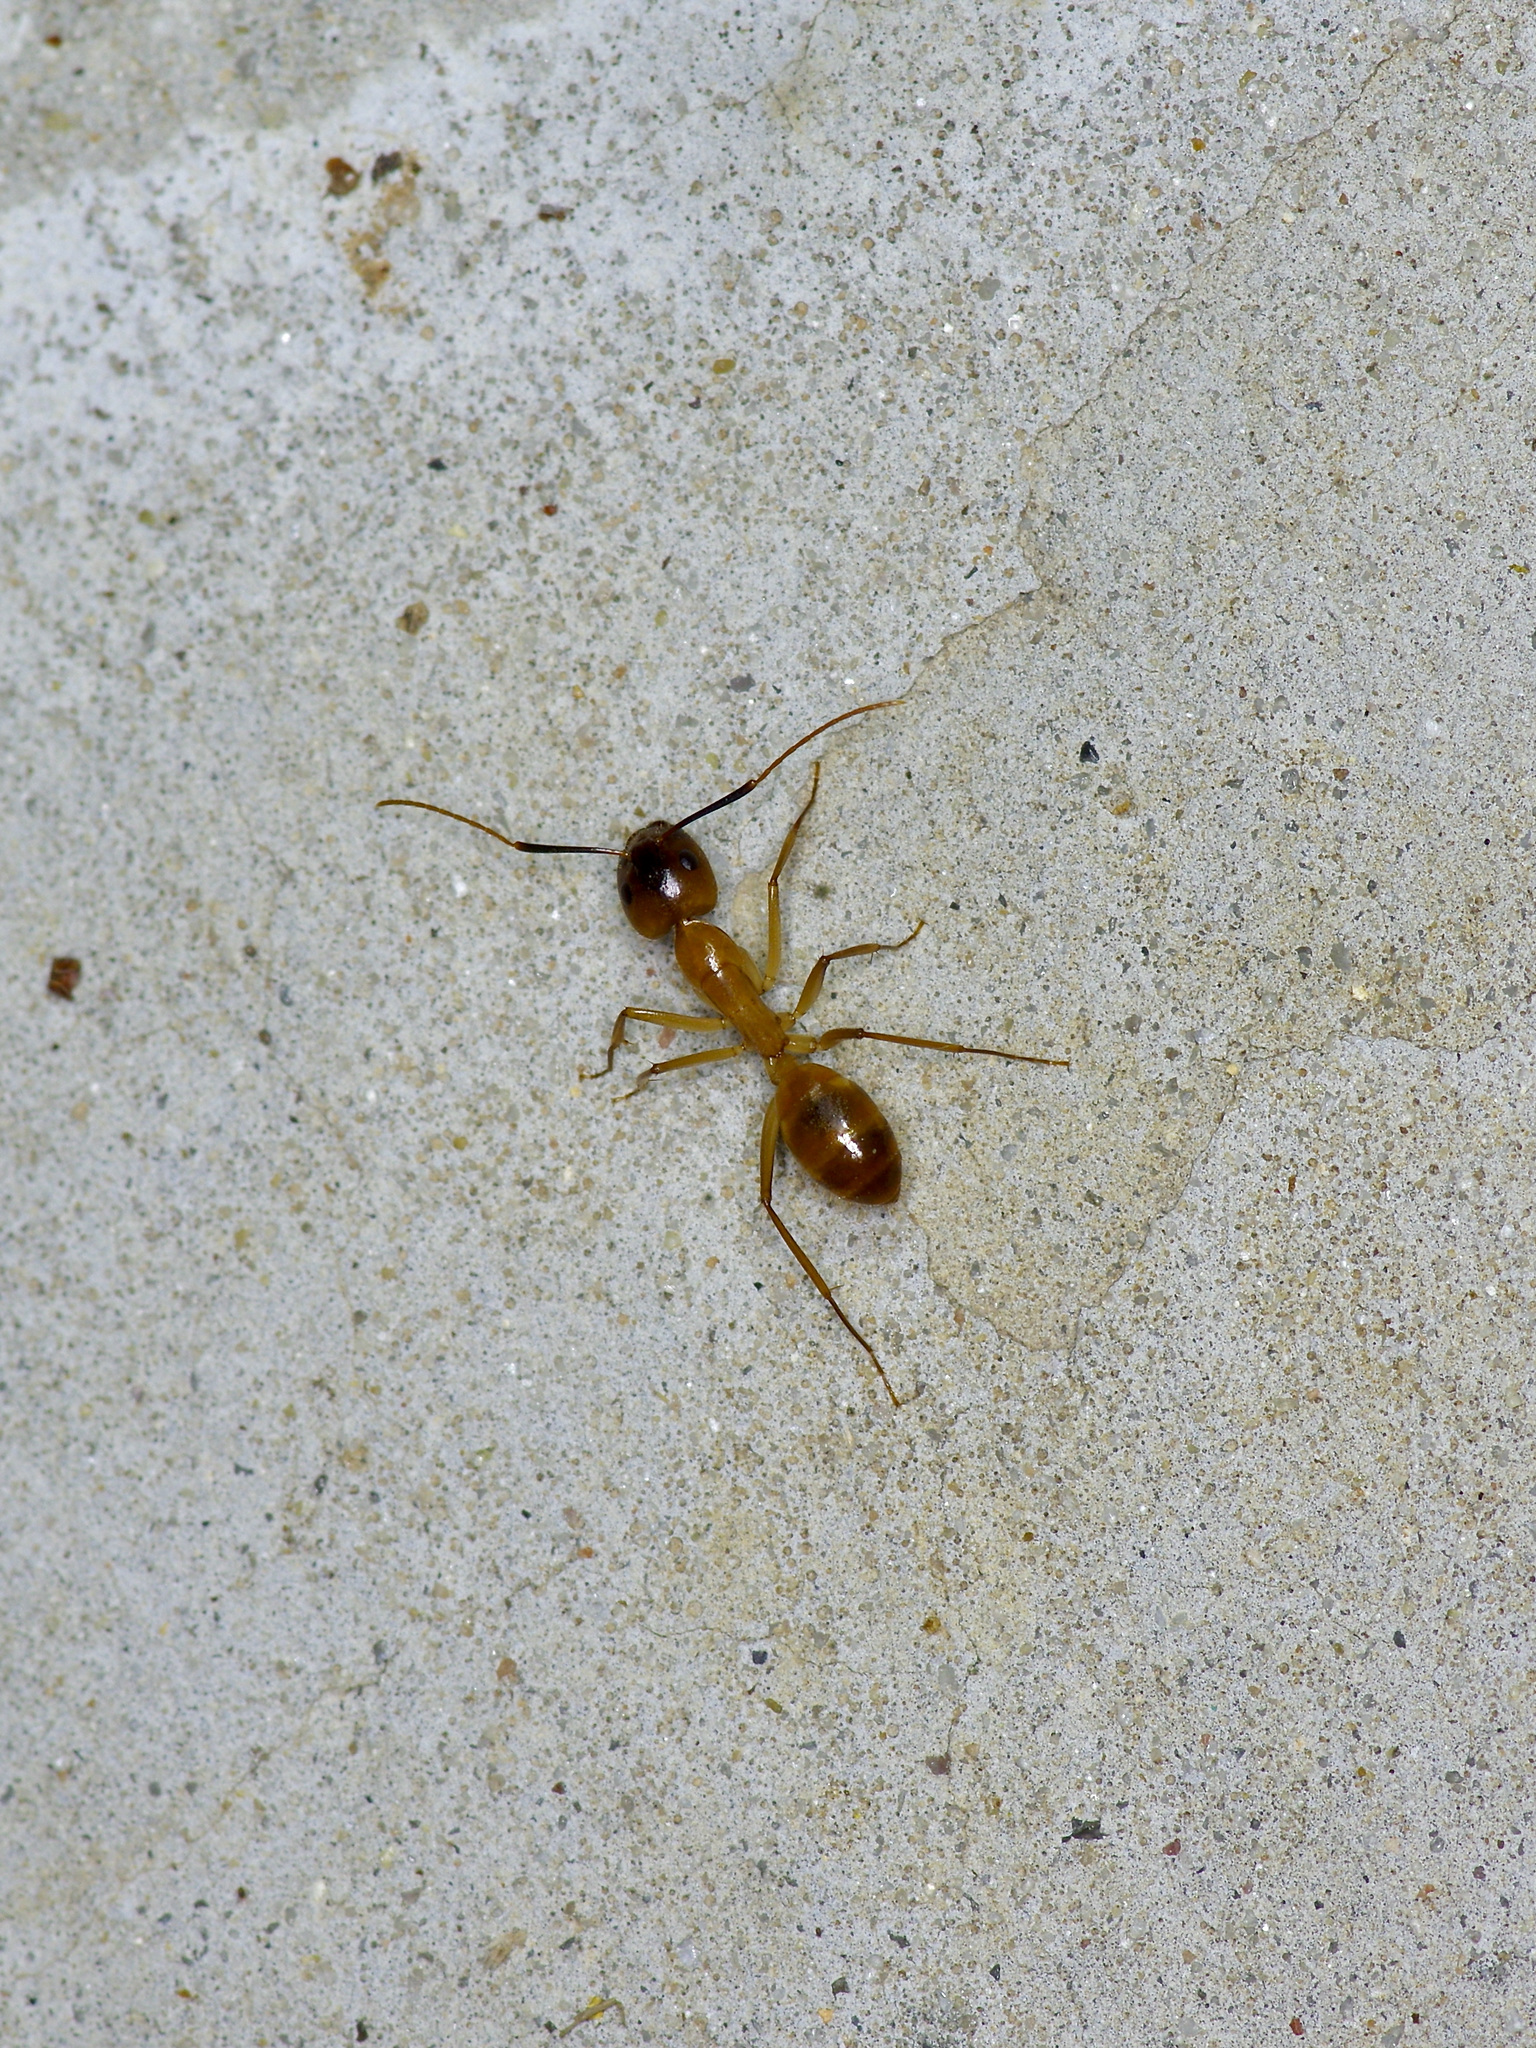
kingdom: Animalia
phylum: Arthropoda
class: Insecta
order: Hymenoptera
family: Formicidae
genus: Camponotus
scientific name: Camponotus festinatus
